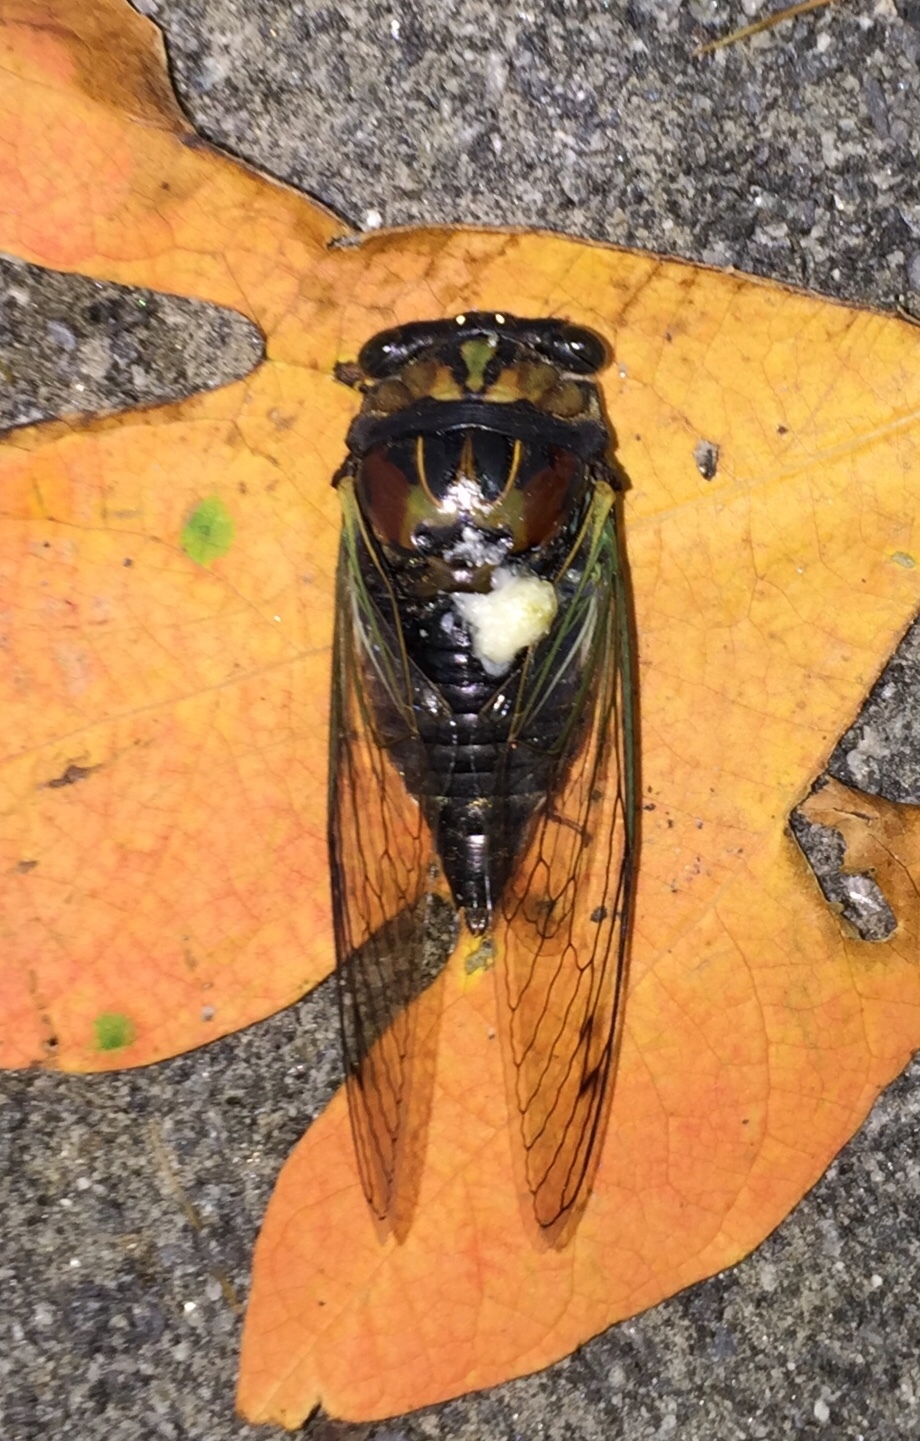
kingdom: Animalia
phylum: Arthropoda
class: Insecta
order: Hemiptera
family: Cicadidae
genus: Neotibicen
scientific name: Neotibicen lyricen
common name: Lyric cicada
